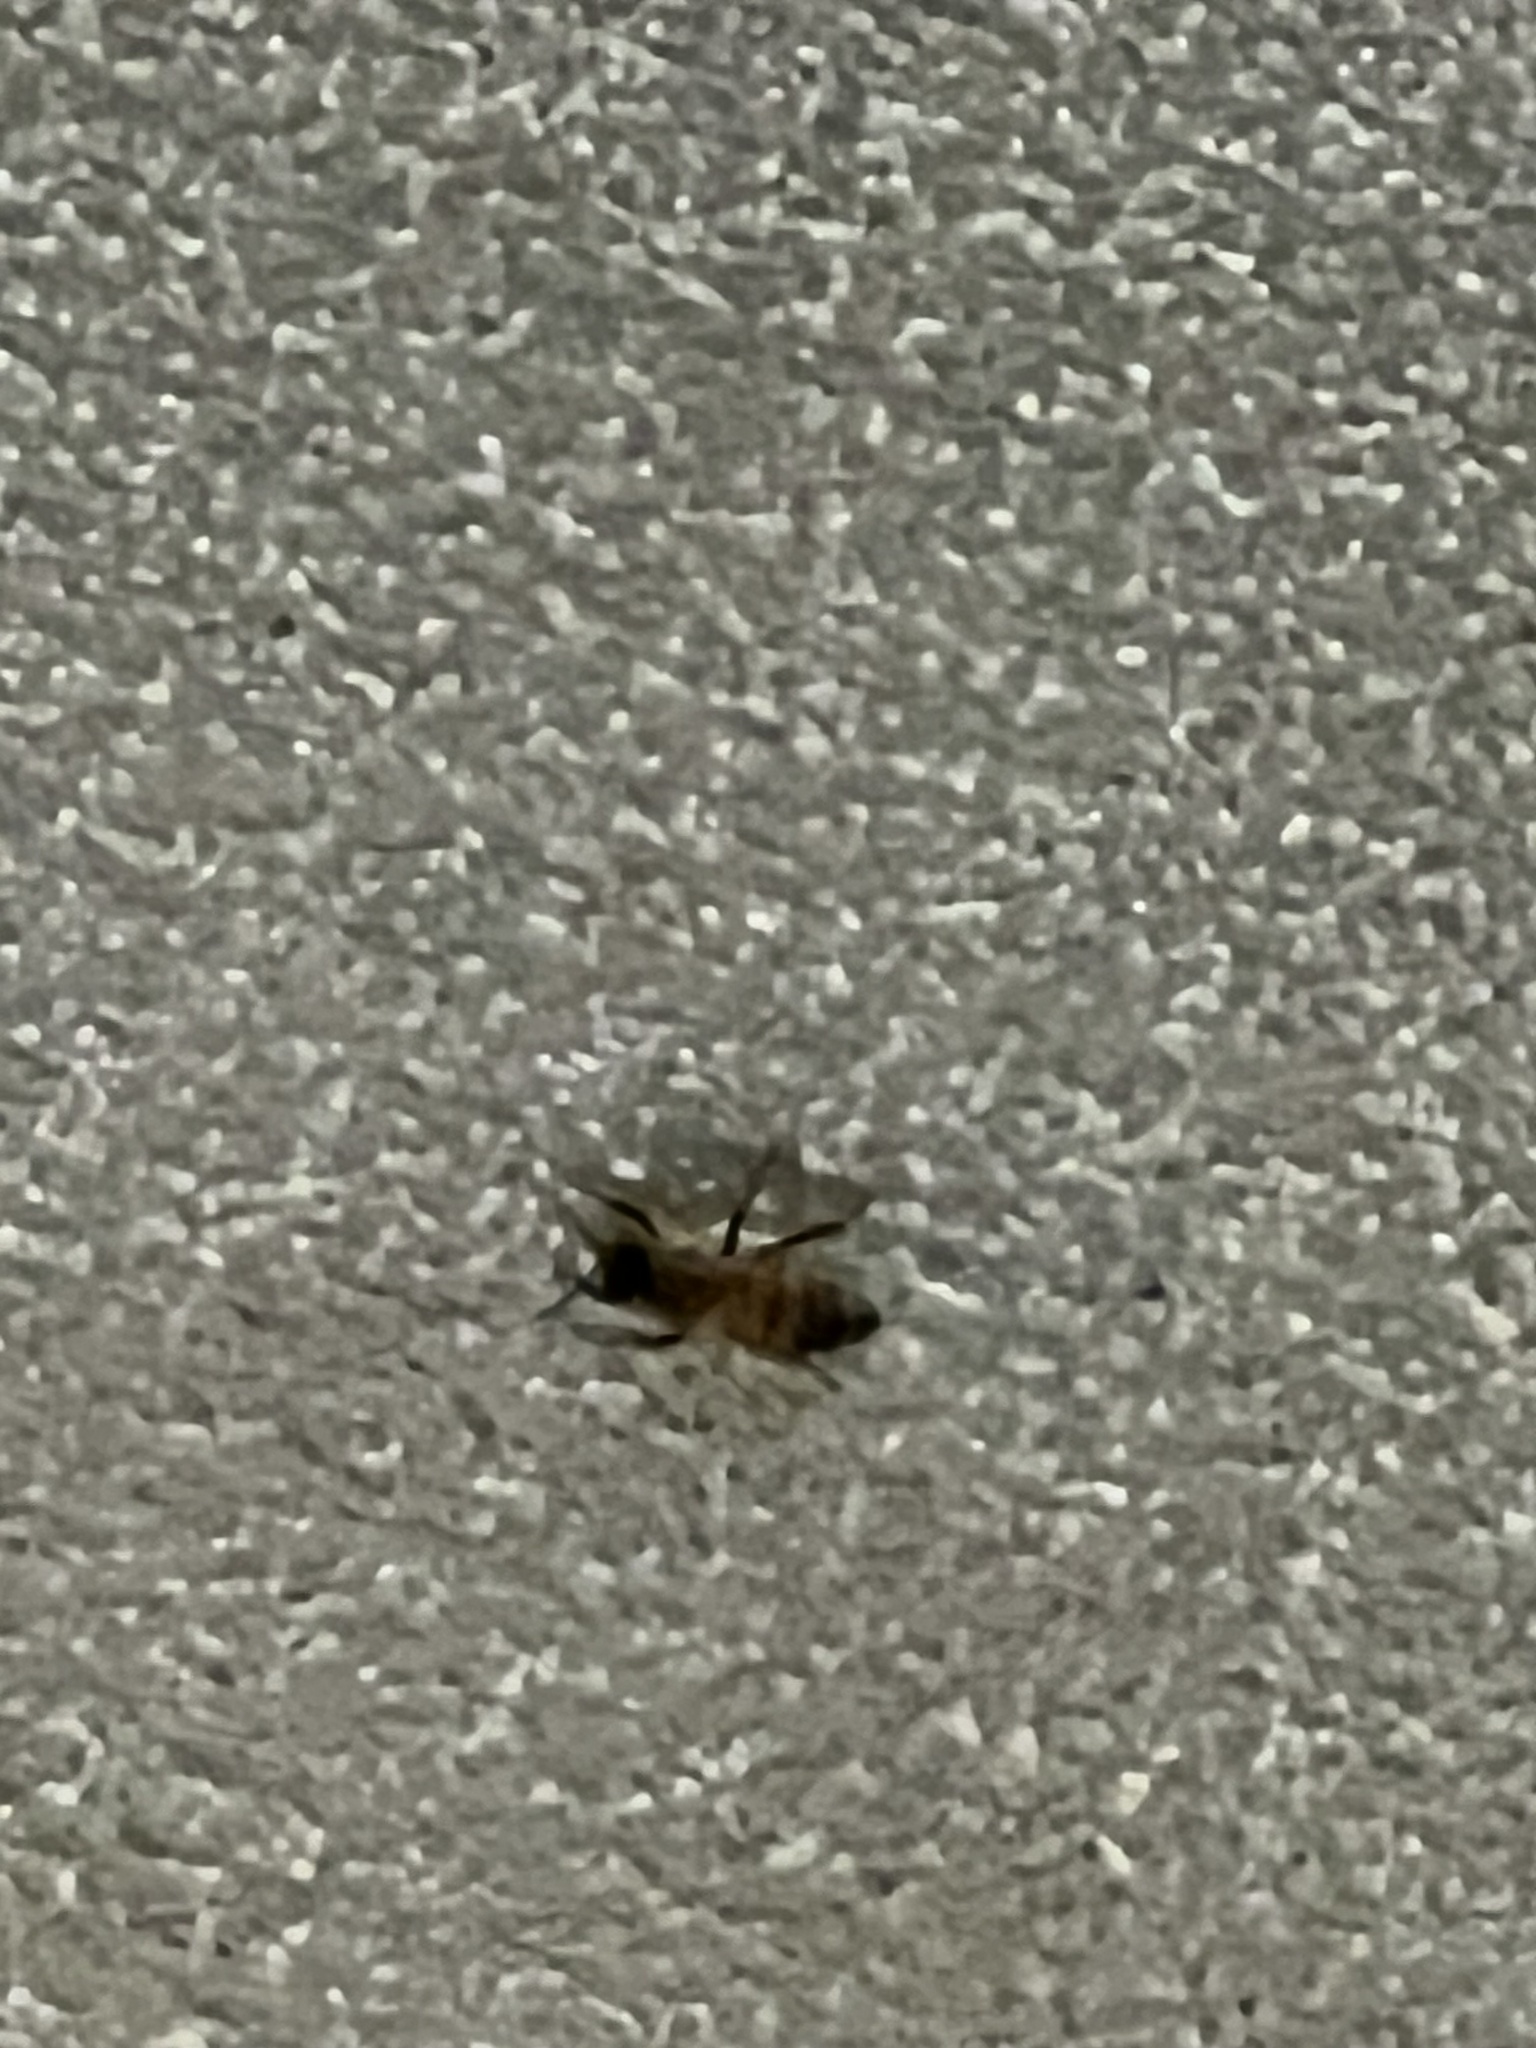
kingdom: Animalia
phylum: Arthropoda
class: Insecta
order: Hymenoptera
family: Apidae
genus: Apis
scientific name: Apis mellifera
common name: Honey bee
